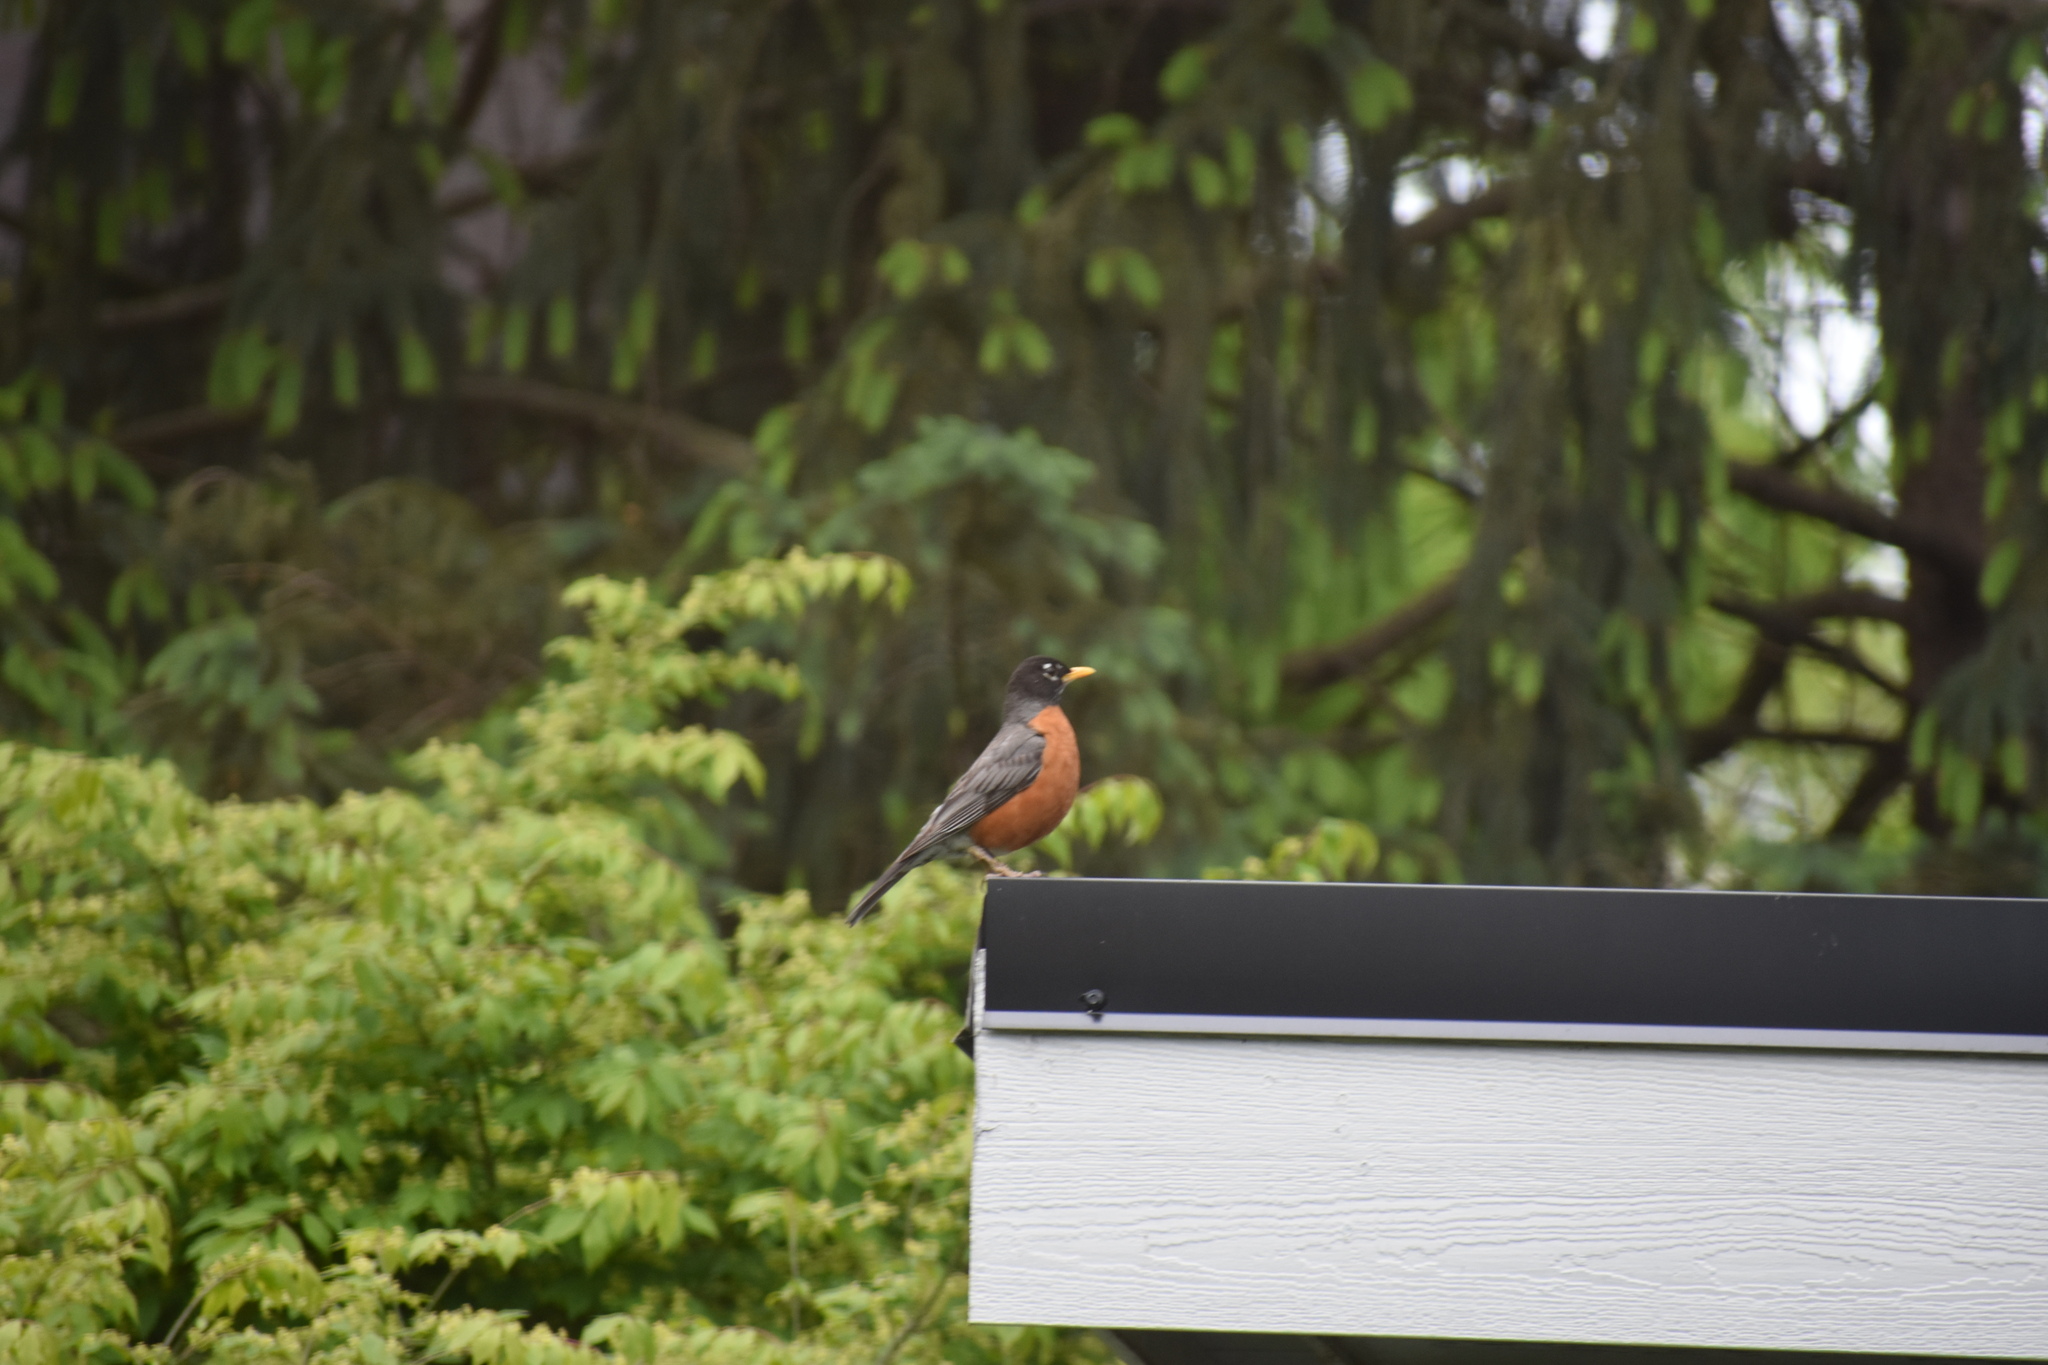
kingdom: Animalia
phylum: Chordata
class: Aves
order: Passeriformes
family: Turdidae
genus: Turdus
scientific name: Turdus migratorius
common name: American robin
